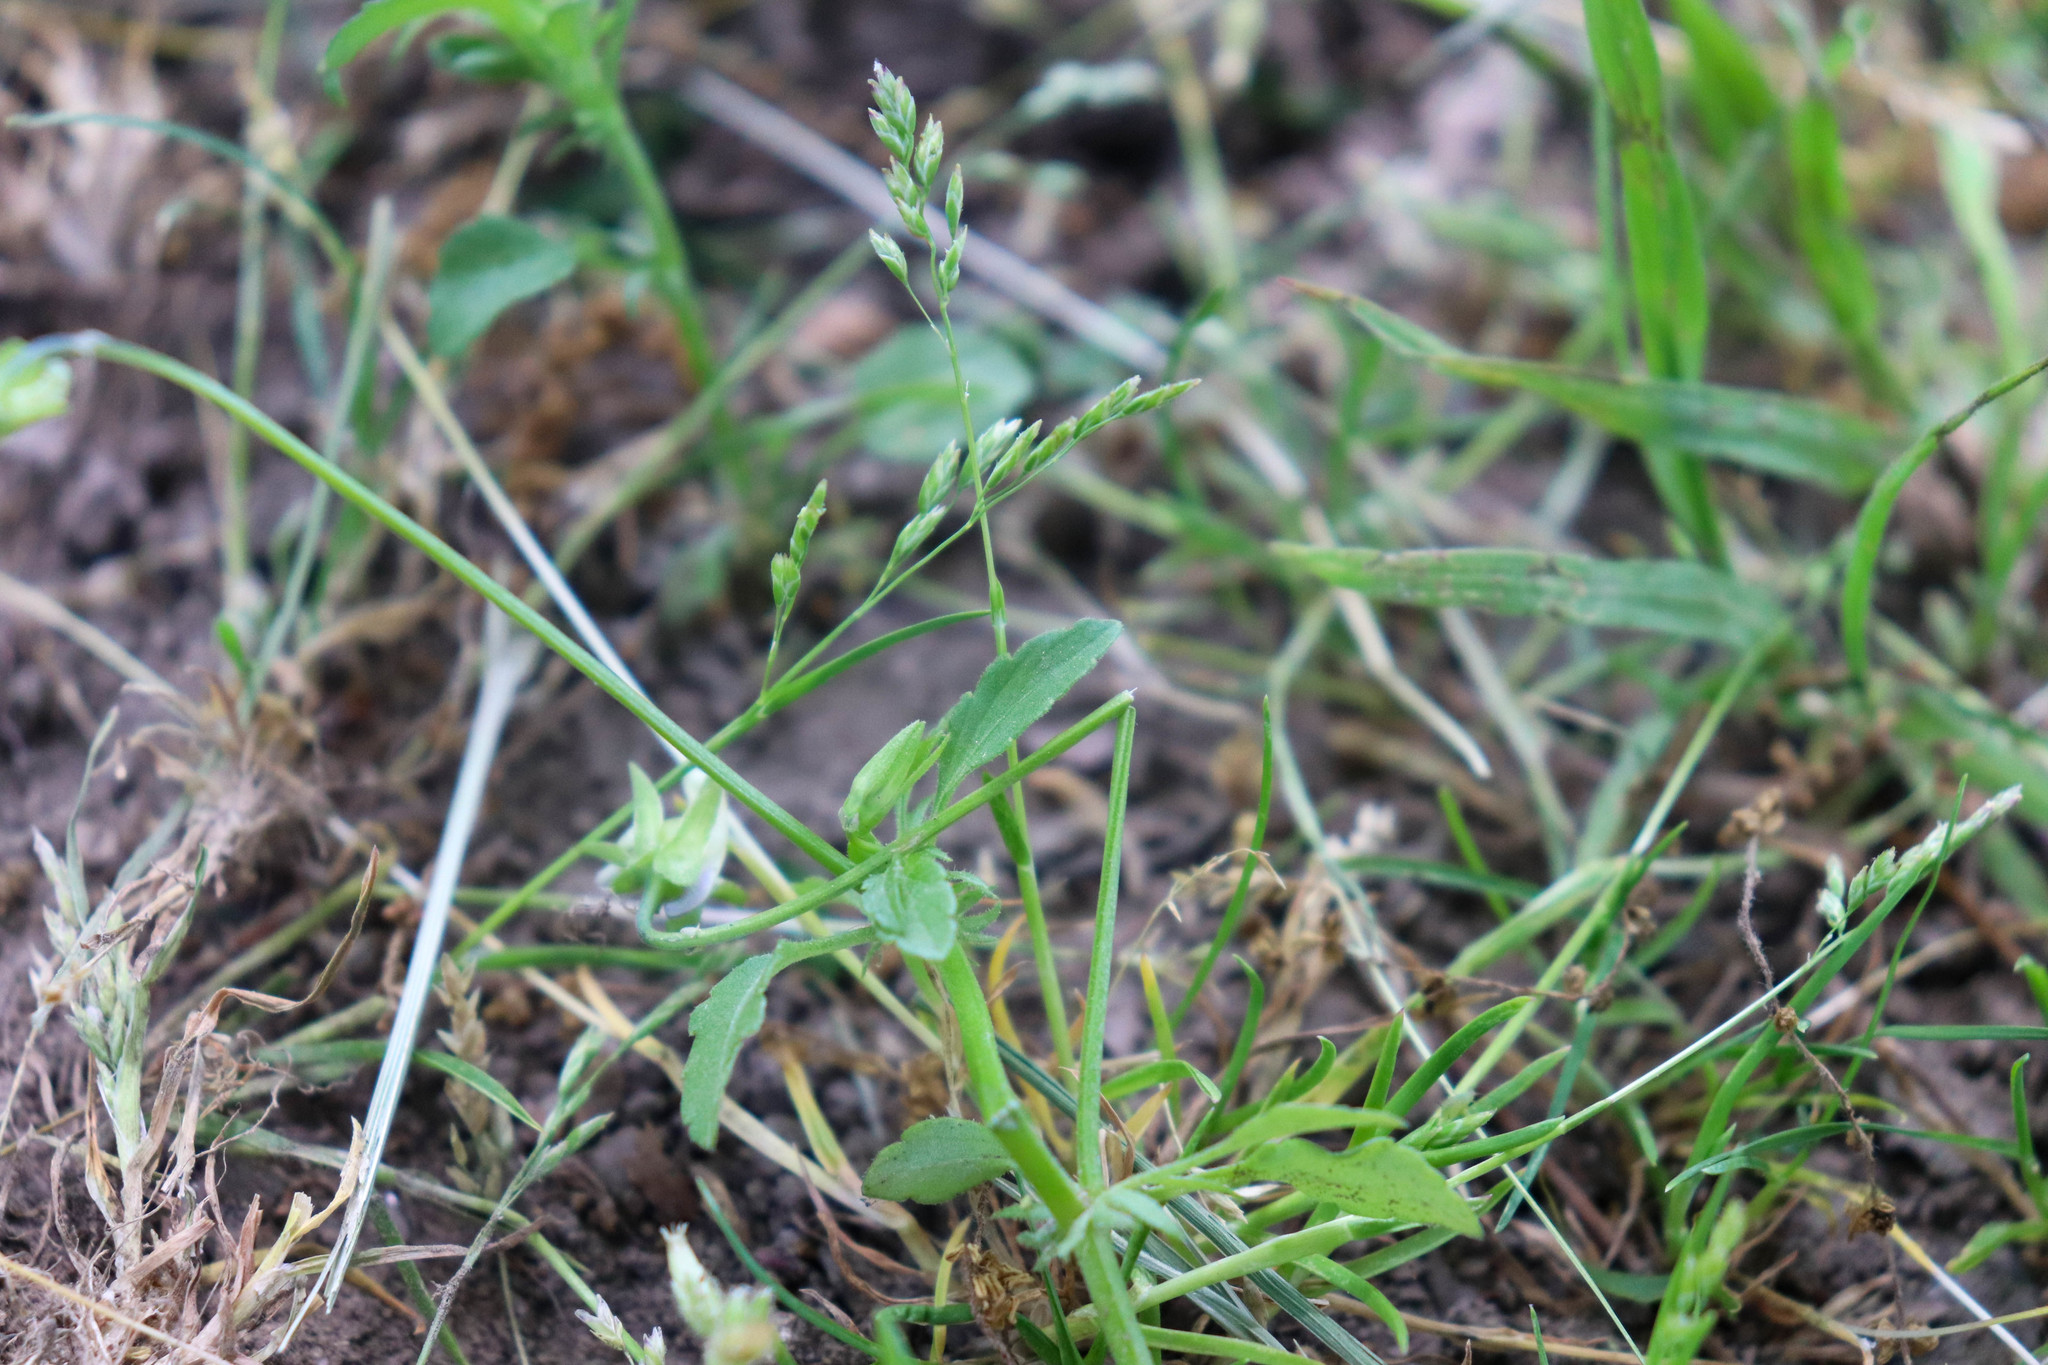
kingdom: Plantae
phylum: Tracheophyta
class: Magnoliopsida
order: Malpighiales
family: Violaceae
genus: Viola
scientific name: Viola arvensis
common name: Field pansy
